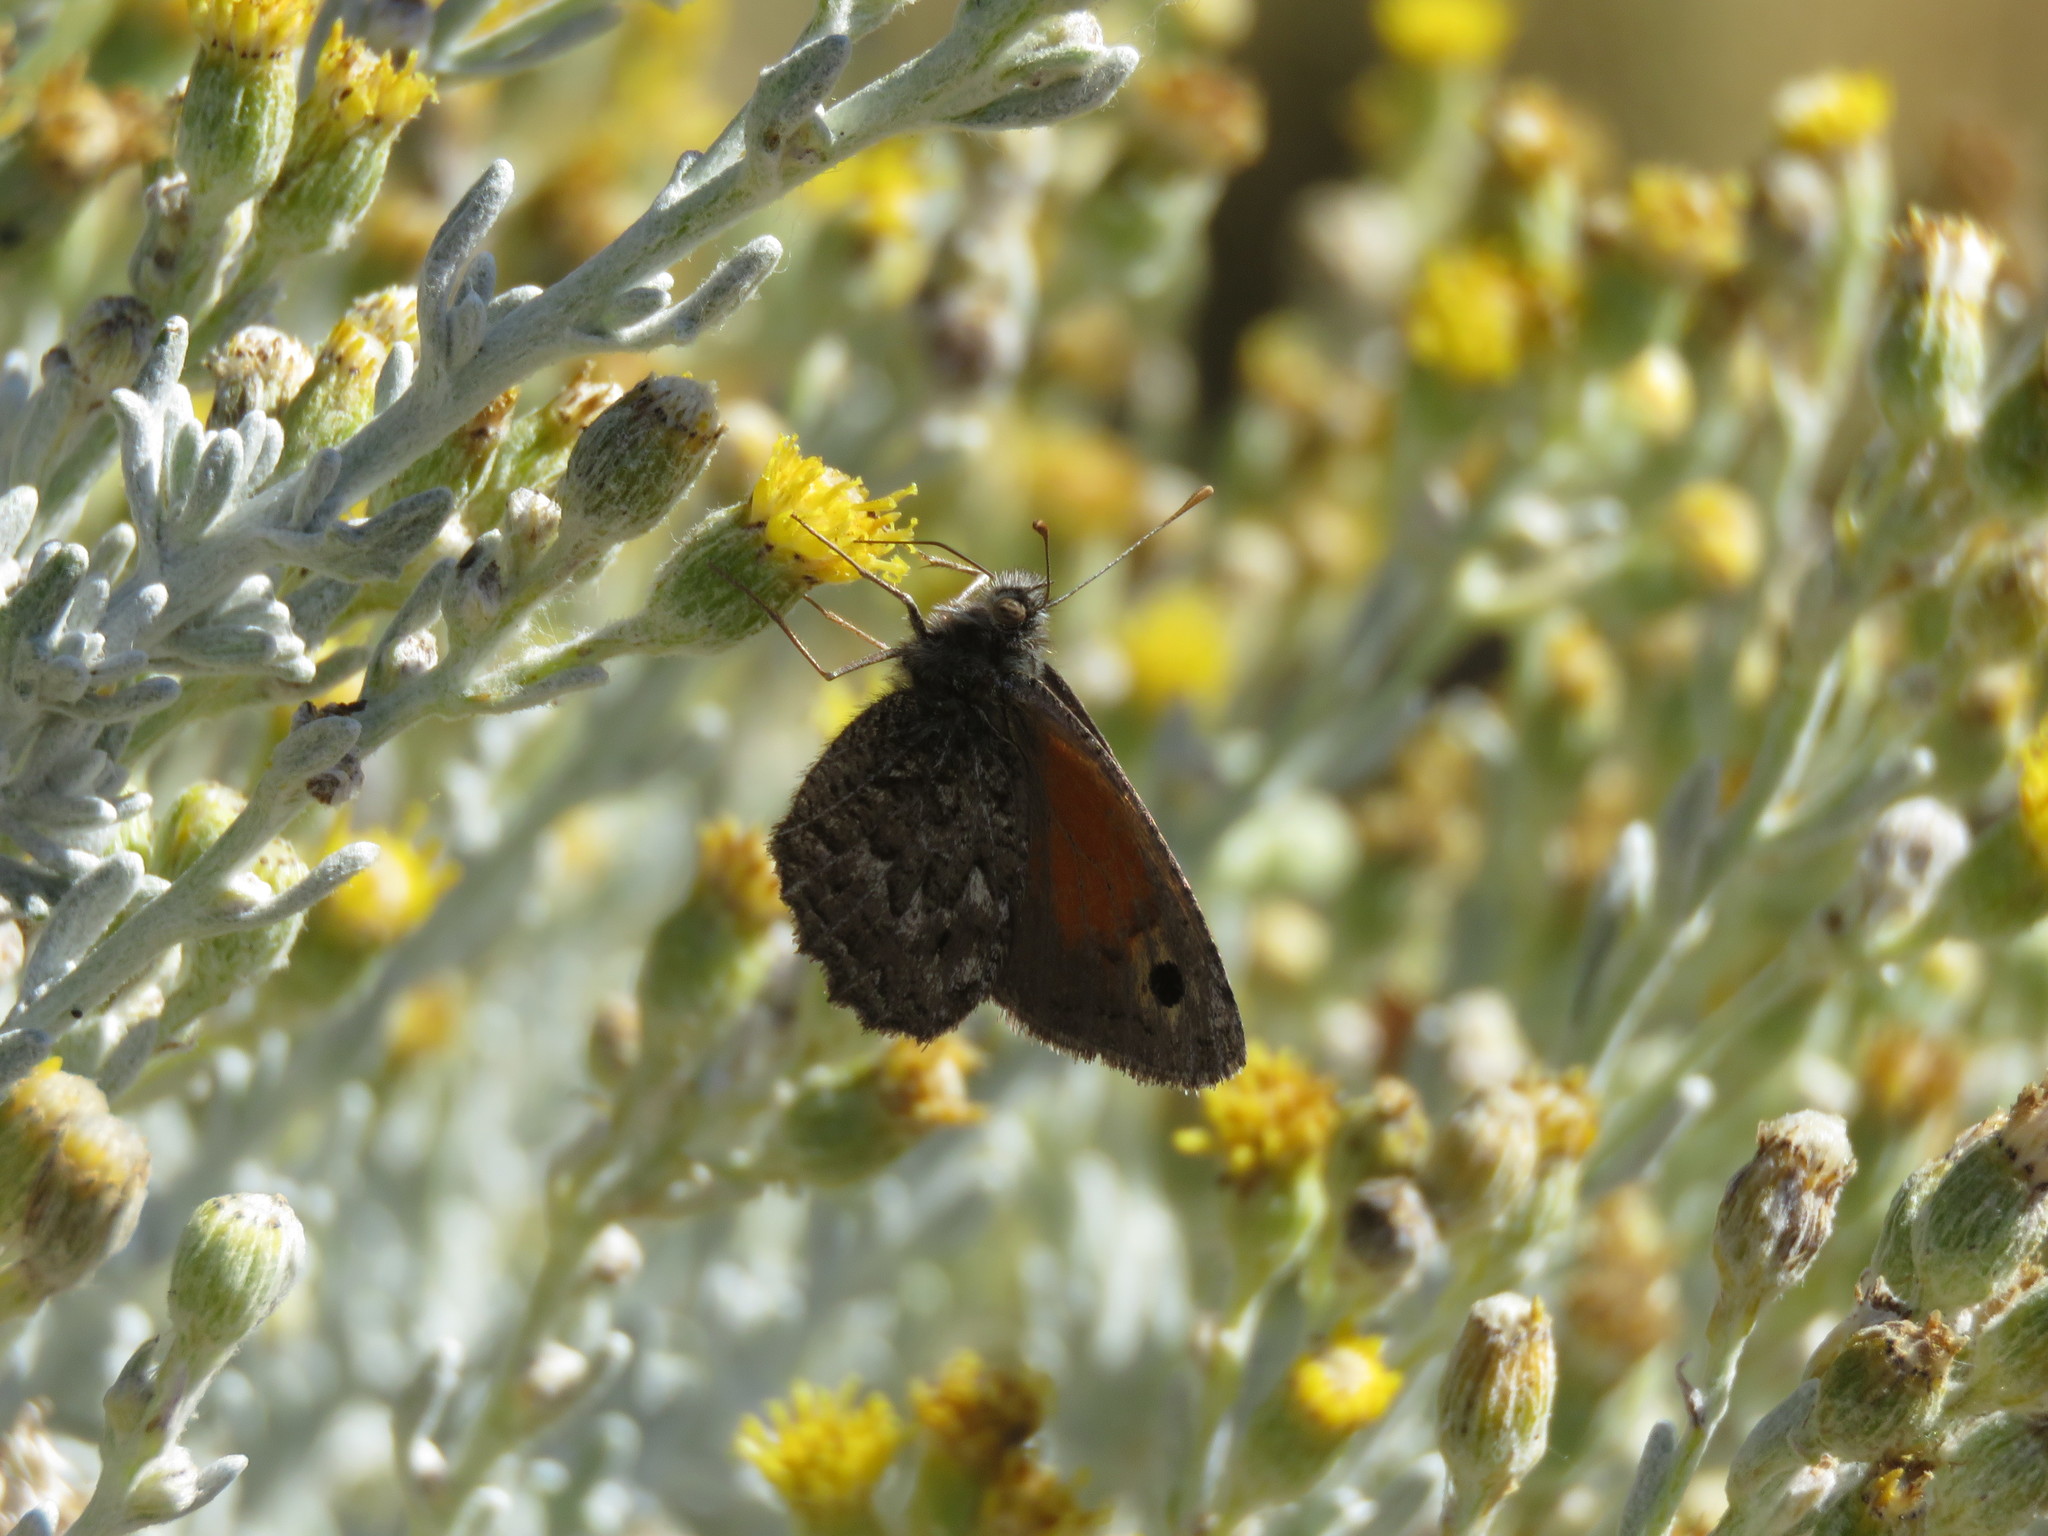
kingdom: Animalia
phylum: Arthropoda
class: Insecta
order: Lepidoptera
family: Nymphalidae
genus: Argyrophorus
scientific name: Argyrophorus
